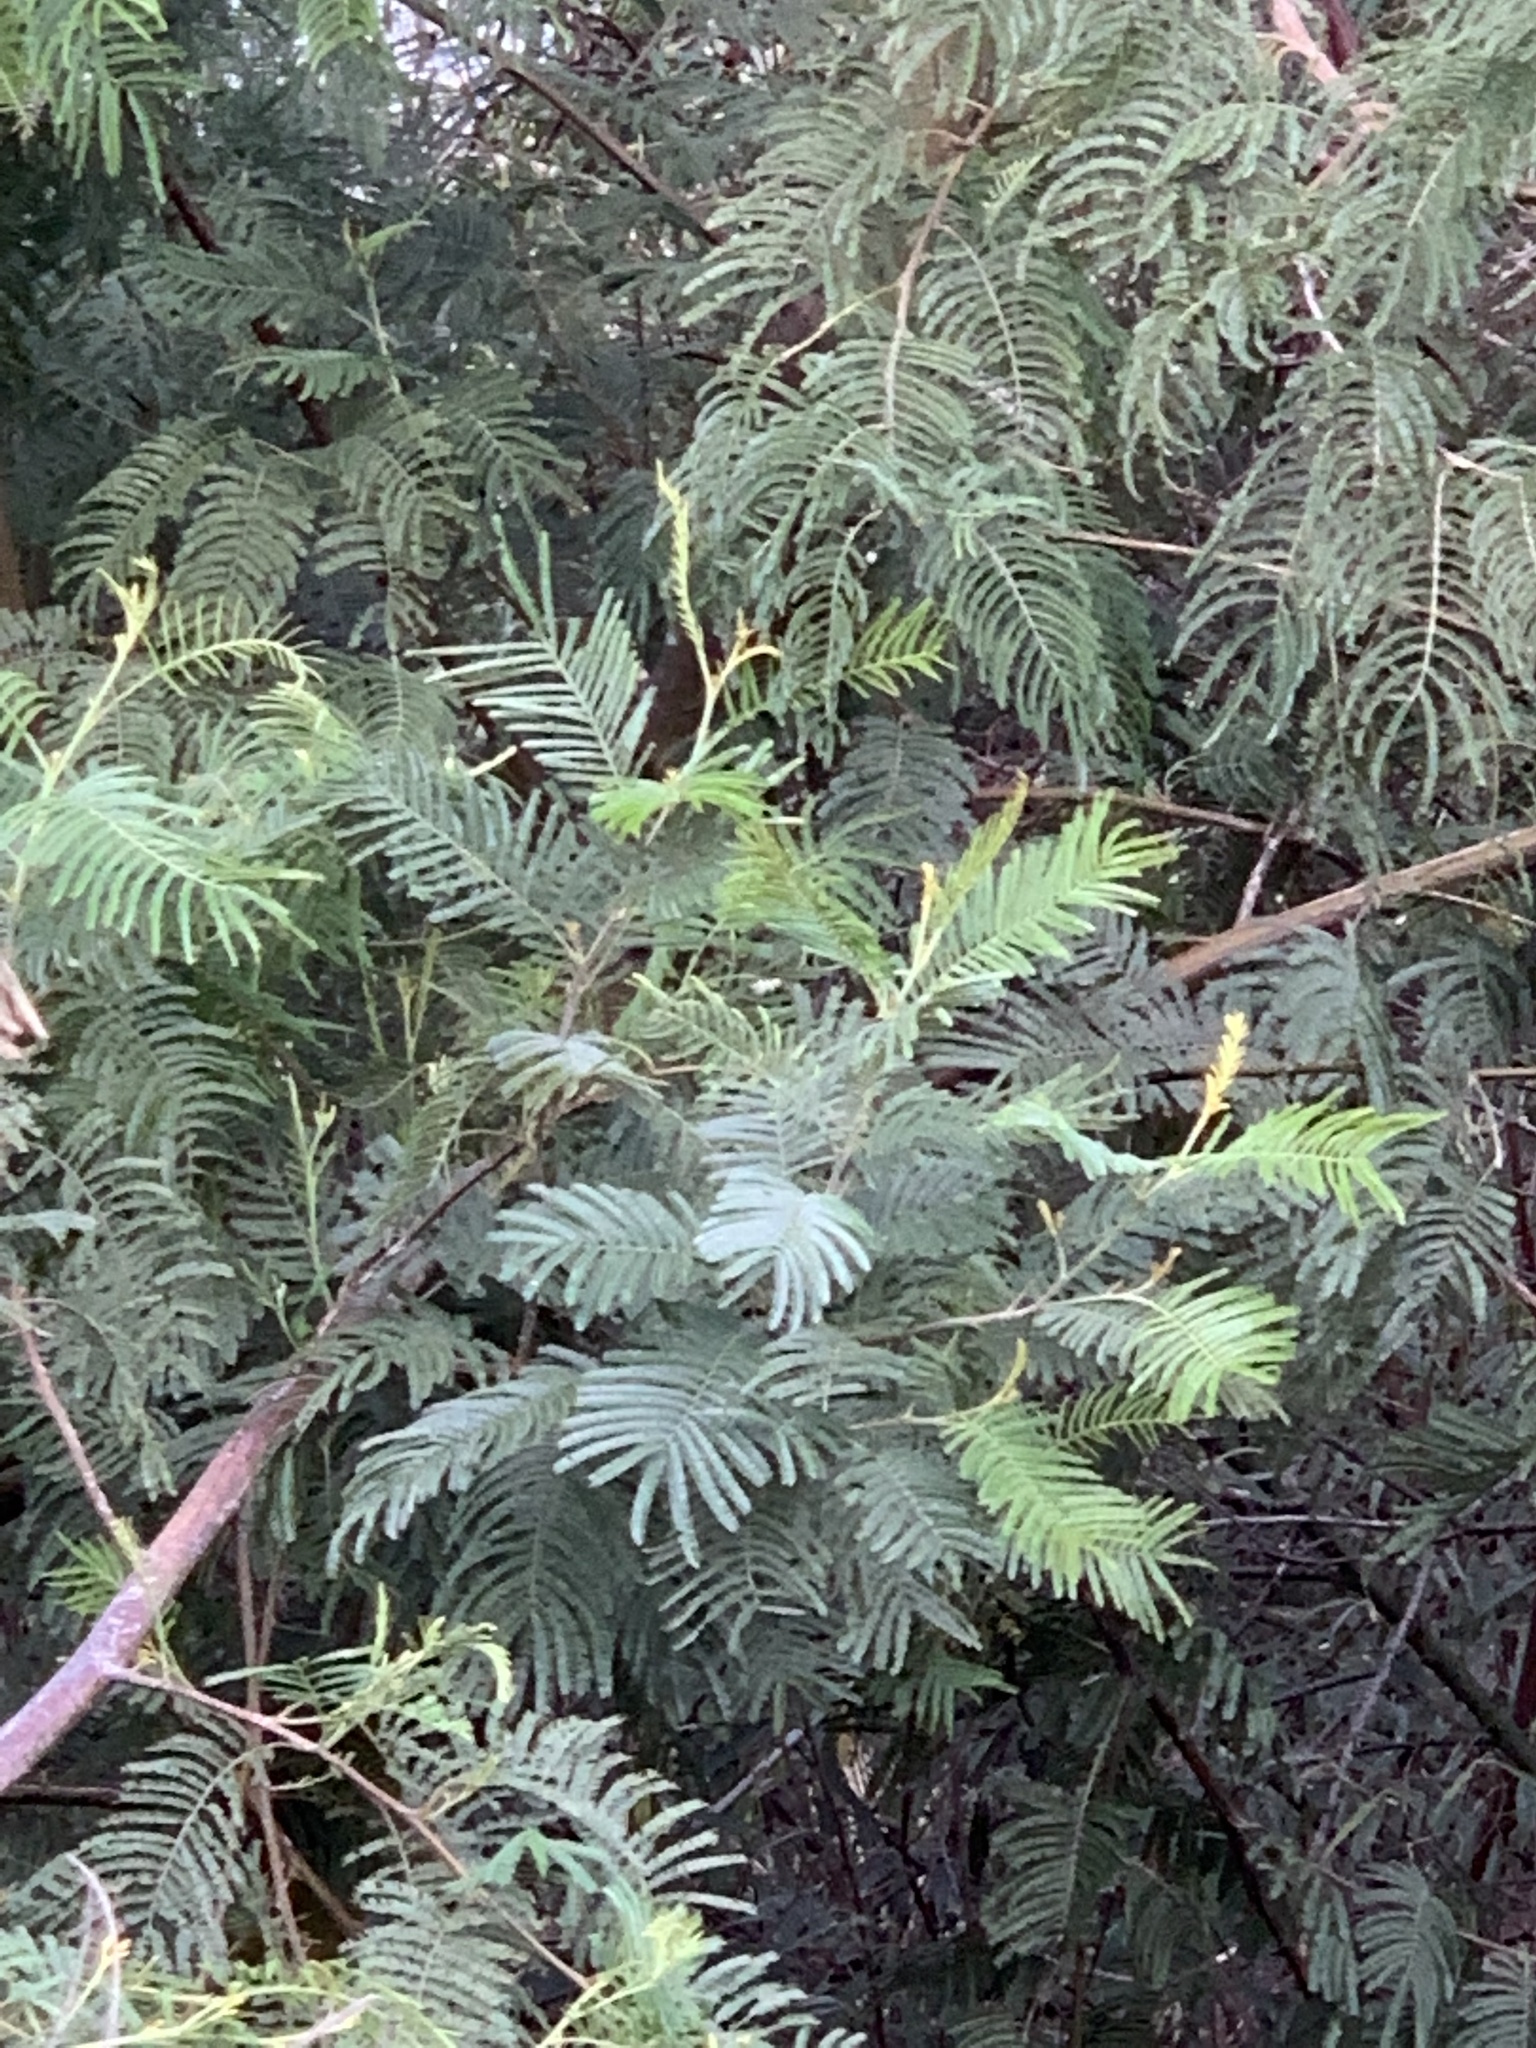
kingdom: Plantae
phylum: Tracheophyta
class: Magnoliopsida
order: Fabales
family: Fabaceae
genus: Acacia
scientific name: Acacia mearnsii
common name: Black wattle
